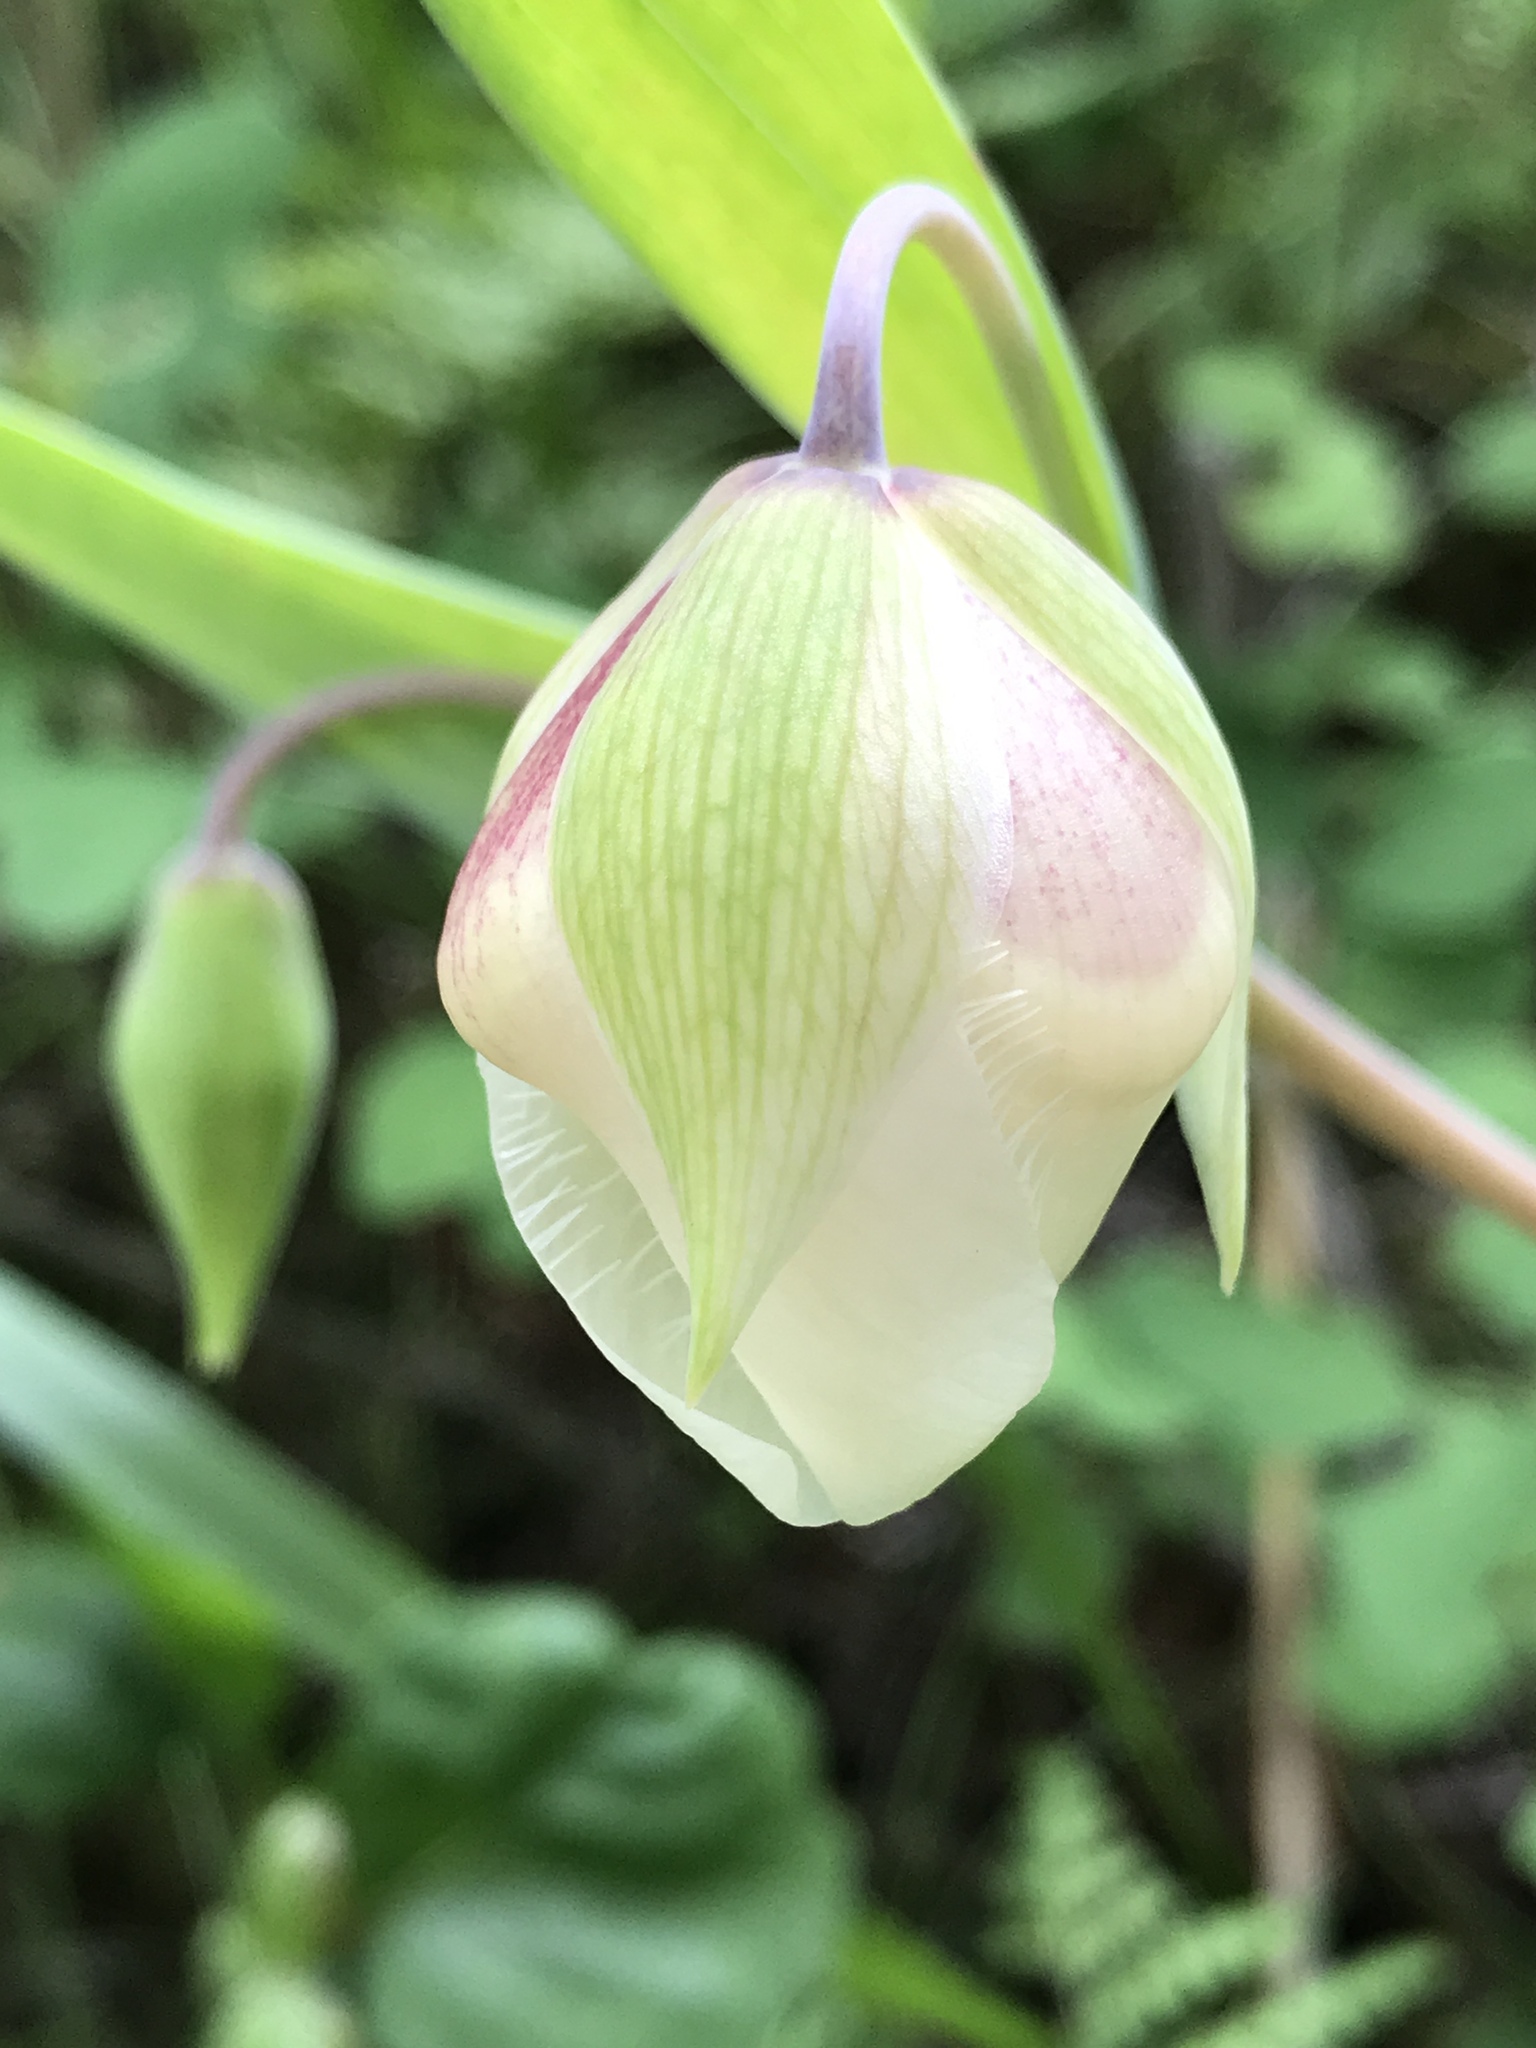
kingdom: Plantae
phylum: Tracheophyta
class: Liliopsida
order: Liliales
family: Liliaceae
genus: Calochortus
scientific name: Calochortus albus
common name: Fairy-lantern
